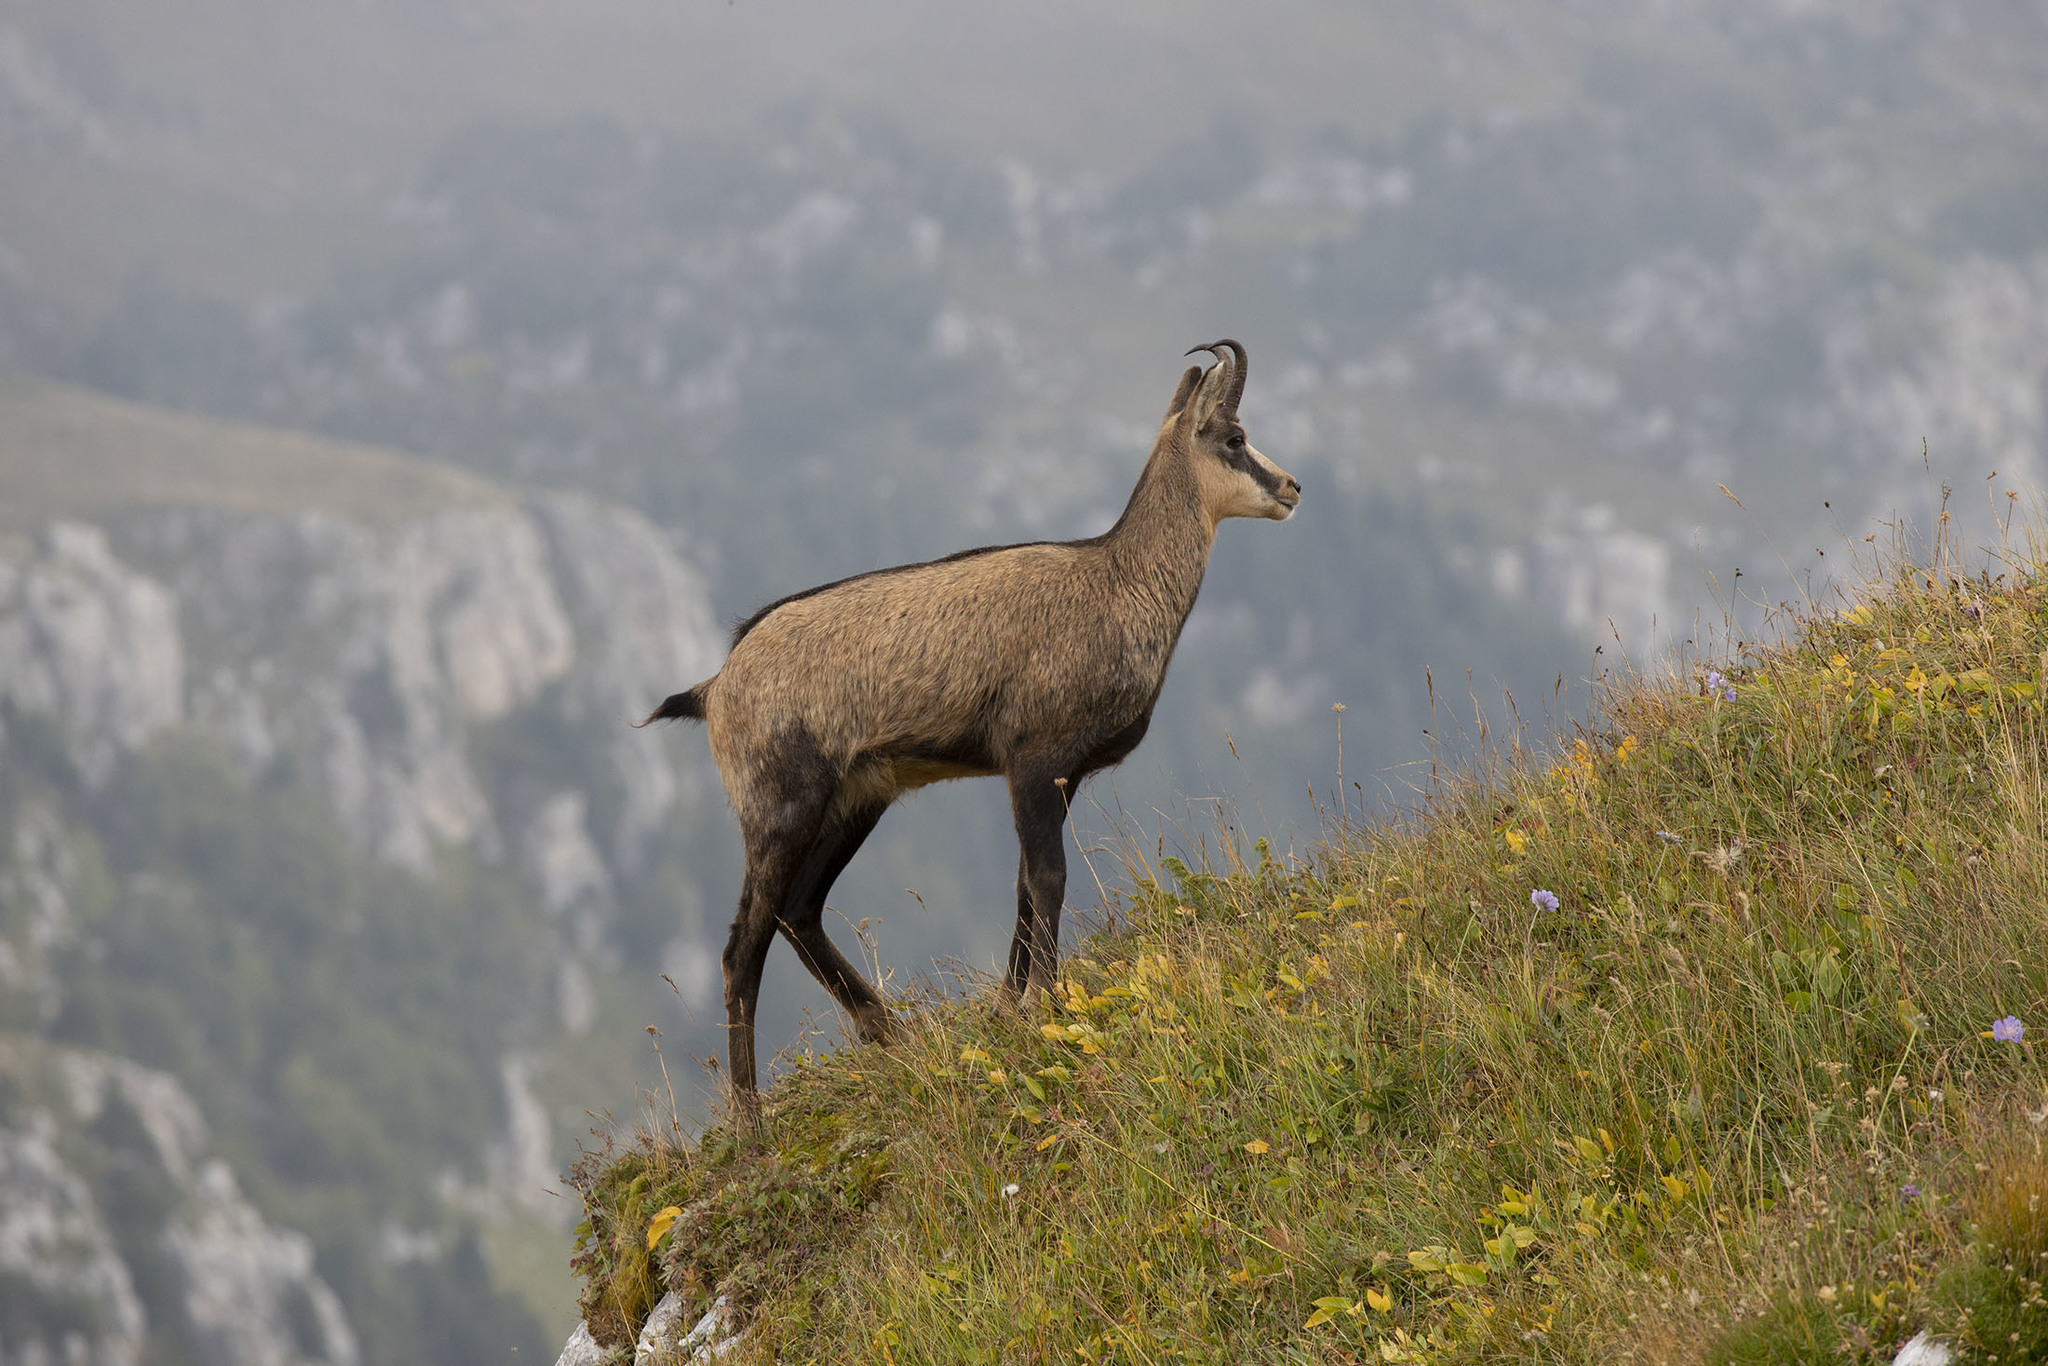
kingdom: Animalia
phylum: Chordata
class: Mammalia
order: Artiodactyla
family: Bovidae
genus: Rupicapra
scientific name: Rupicapra rupicapra
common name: Chamois
